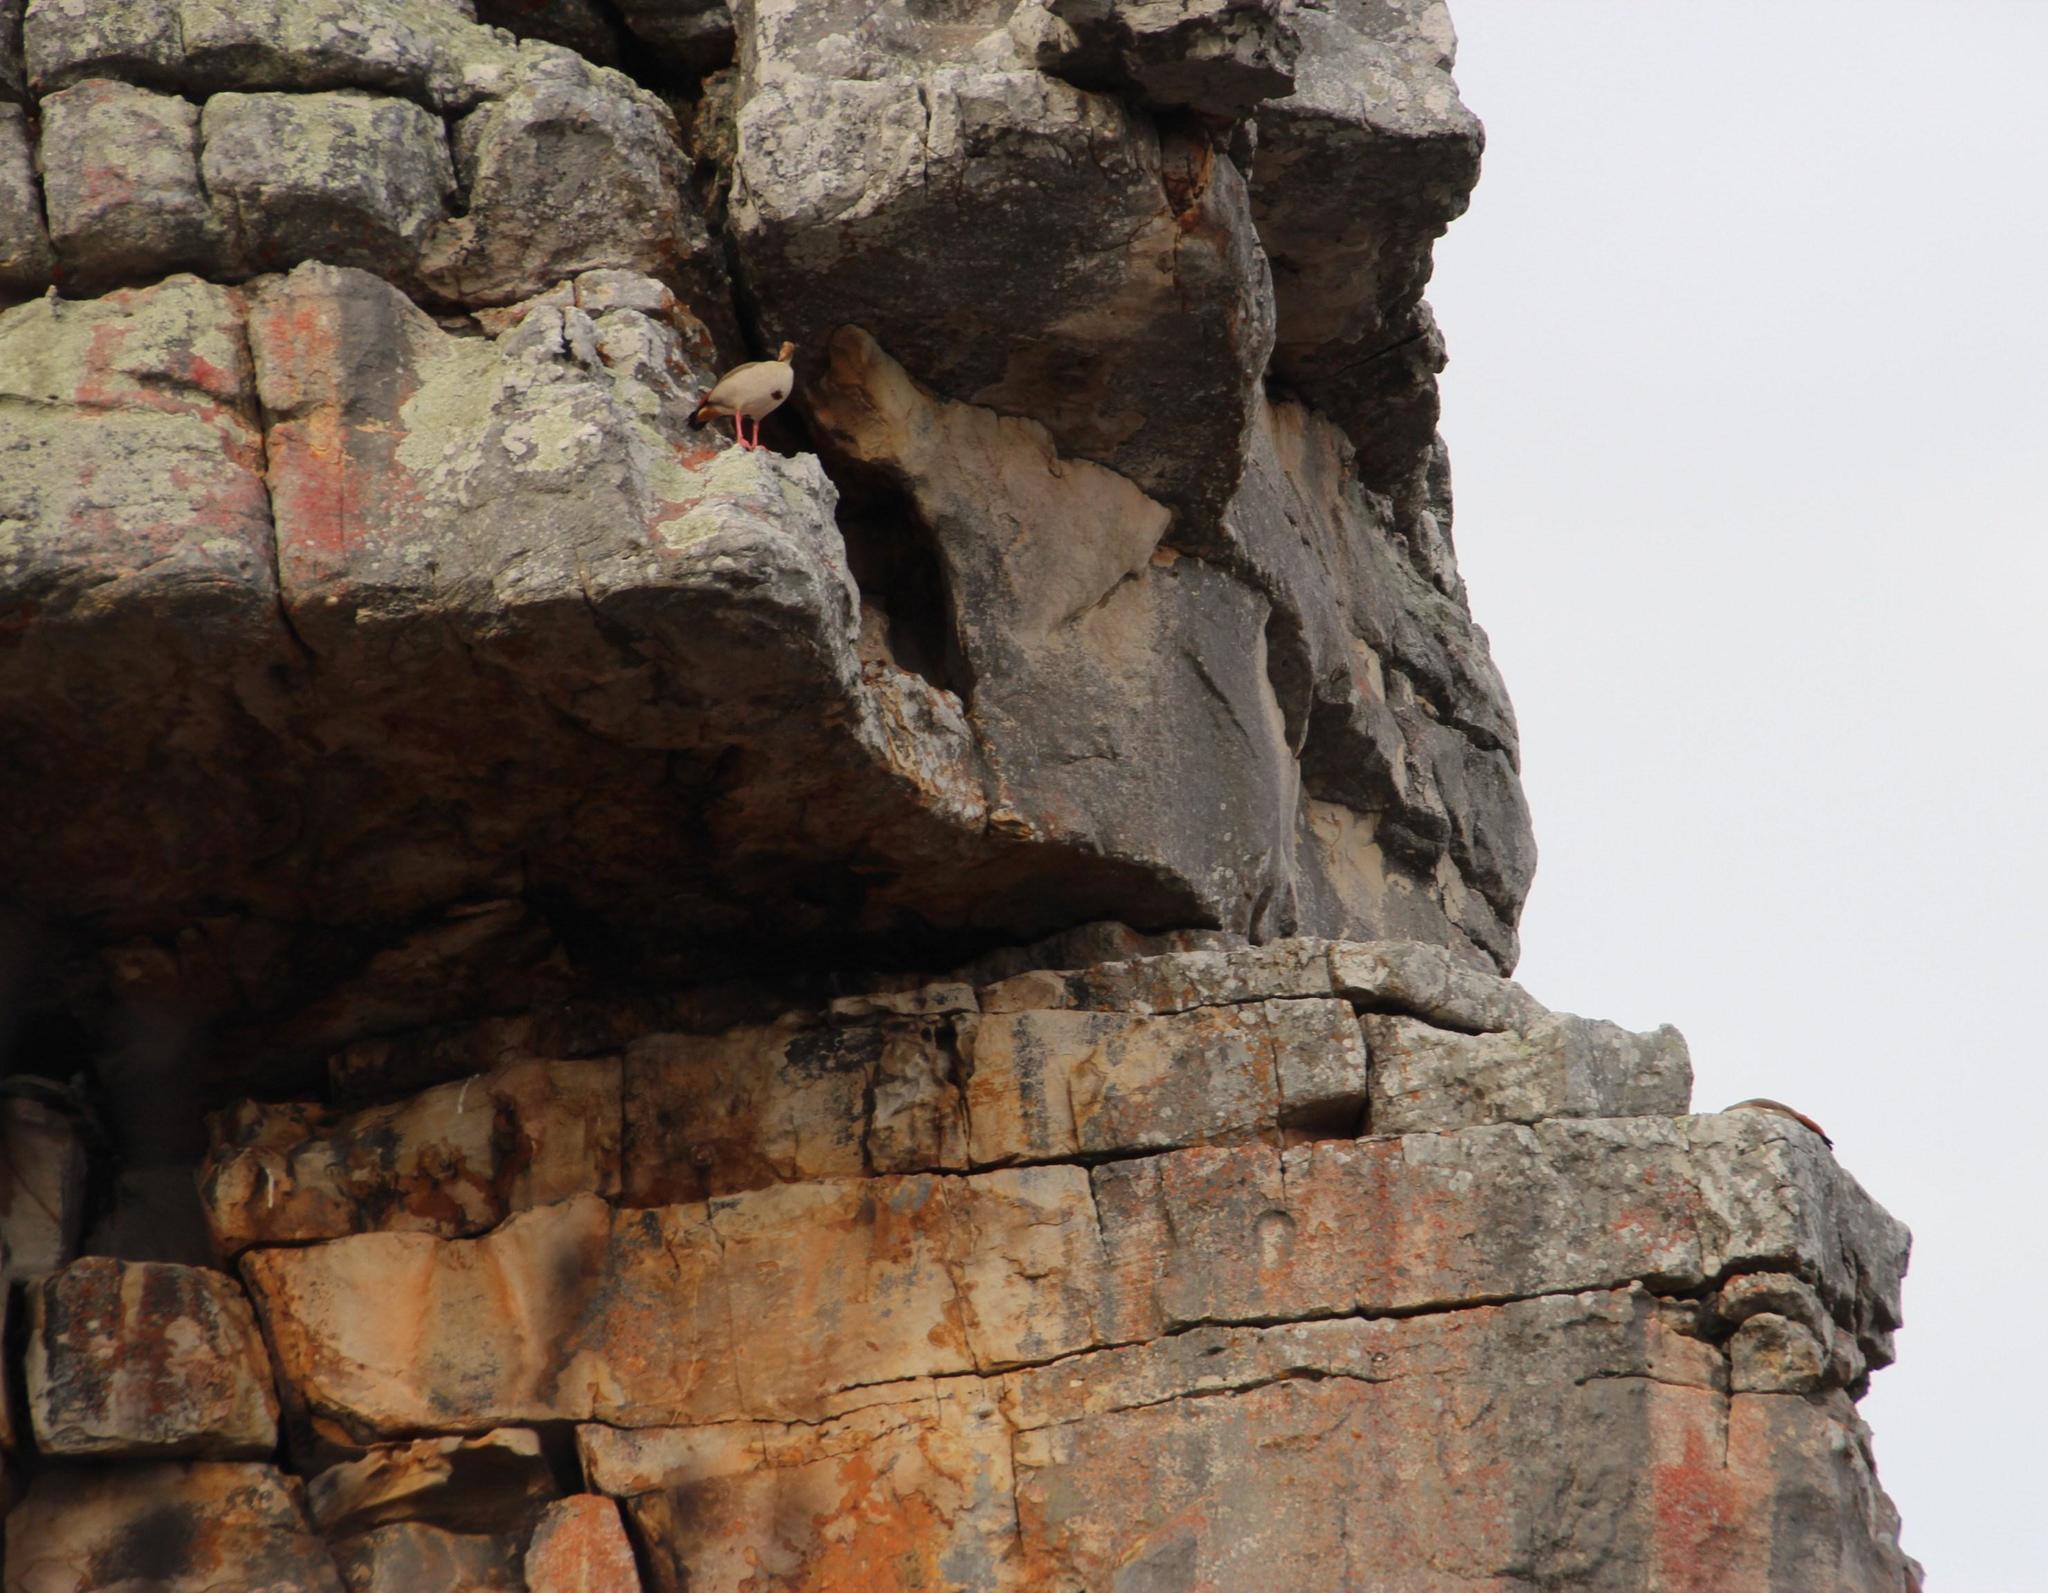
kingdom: Animalia
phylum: Chordata
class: Aves
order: Anseriformes
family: Anatidae
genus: Alopochen
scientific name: Alopochen aegyptiaca
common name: Egyptian goose
